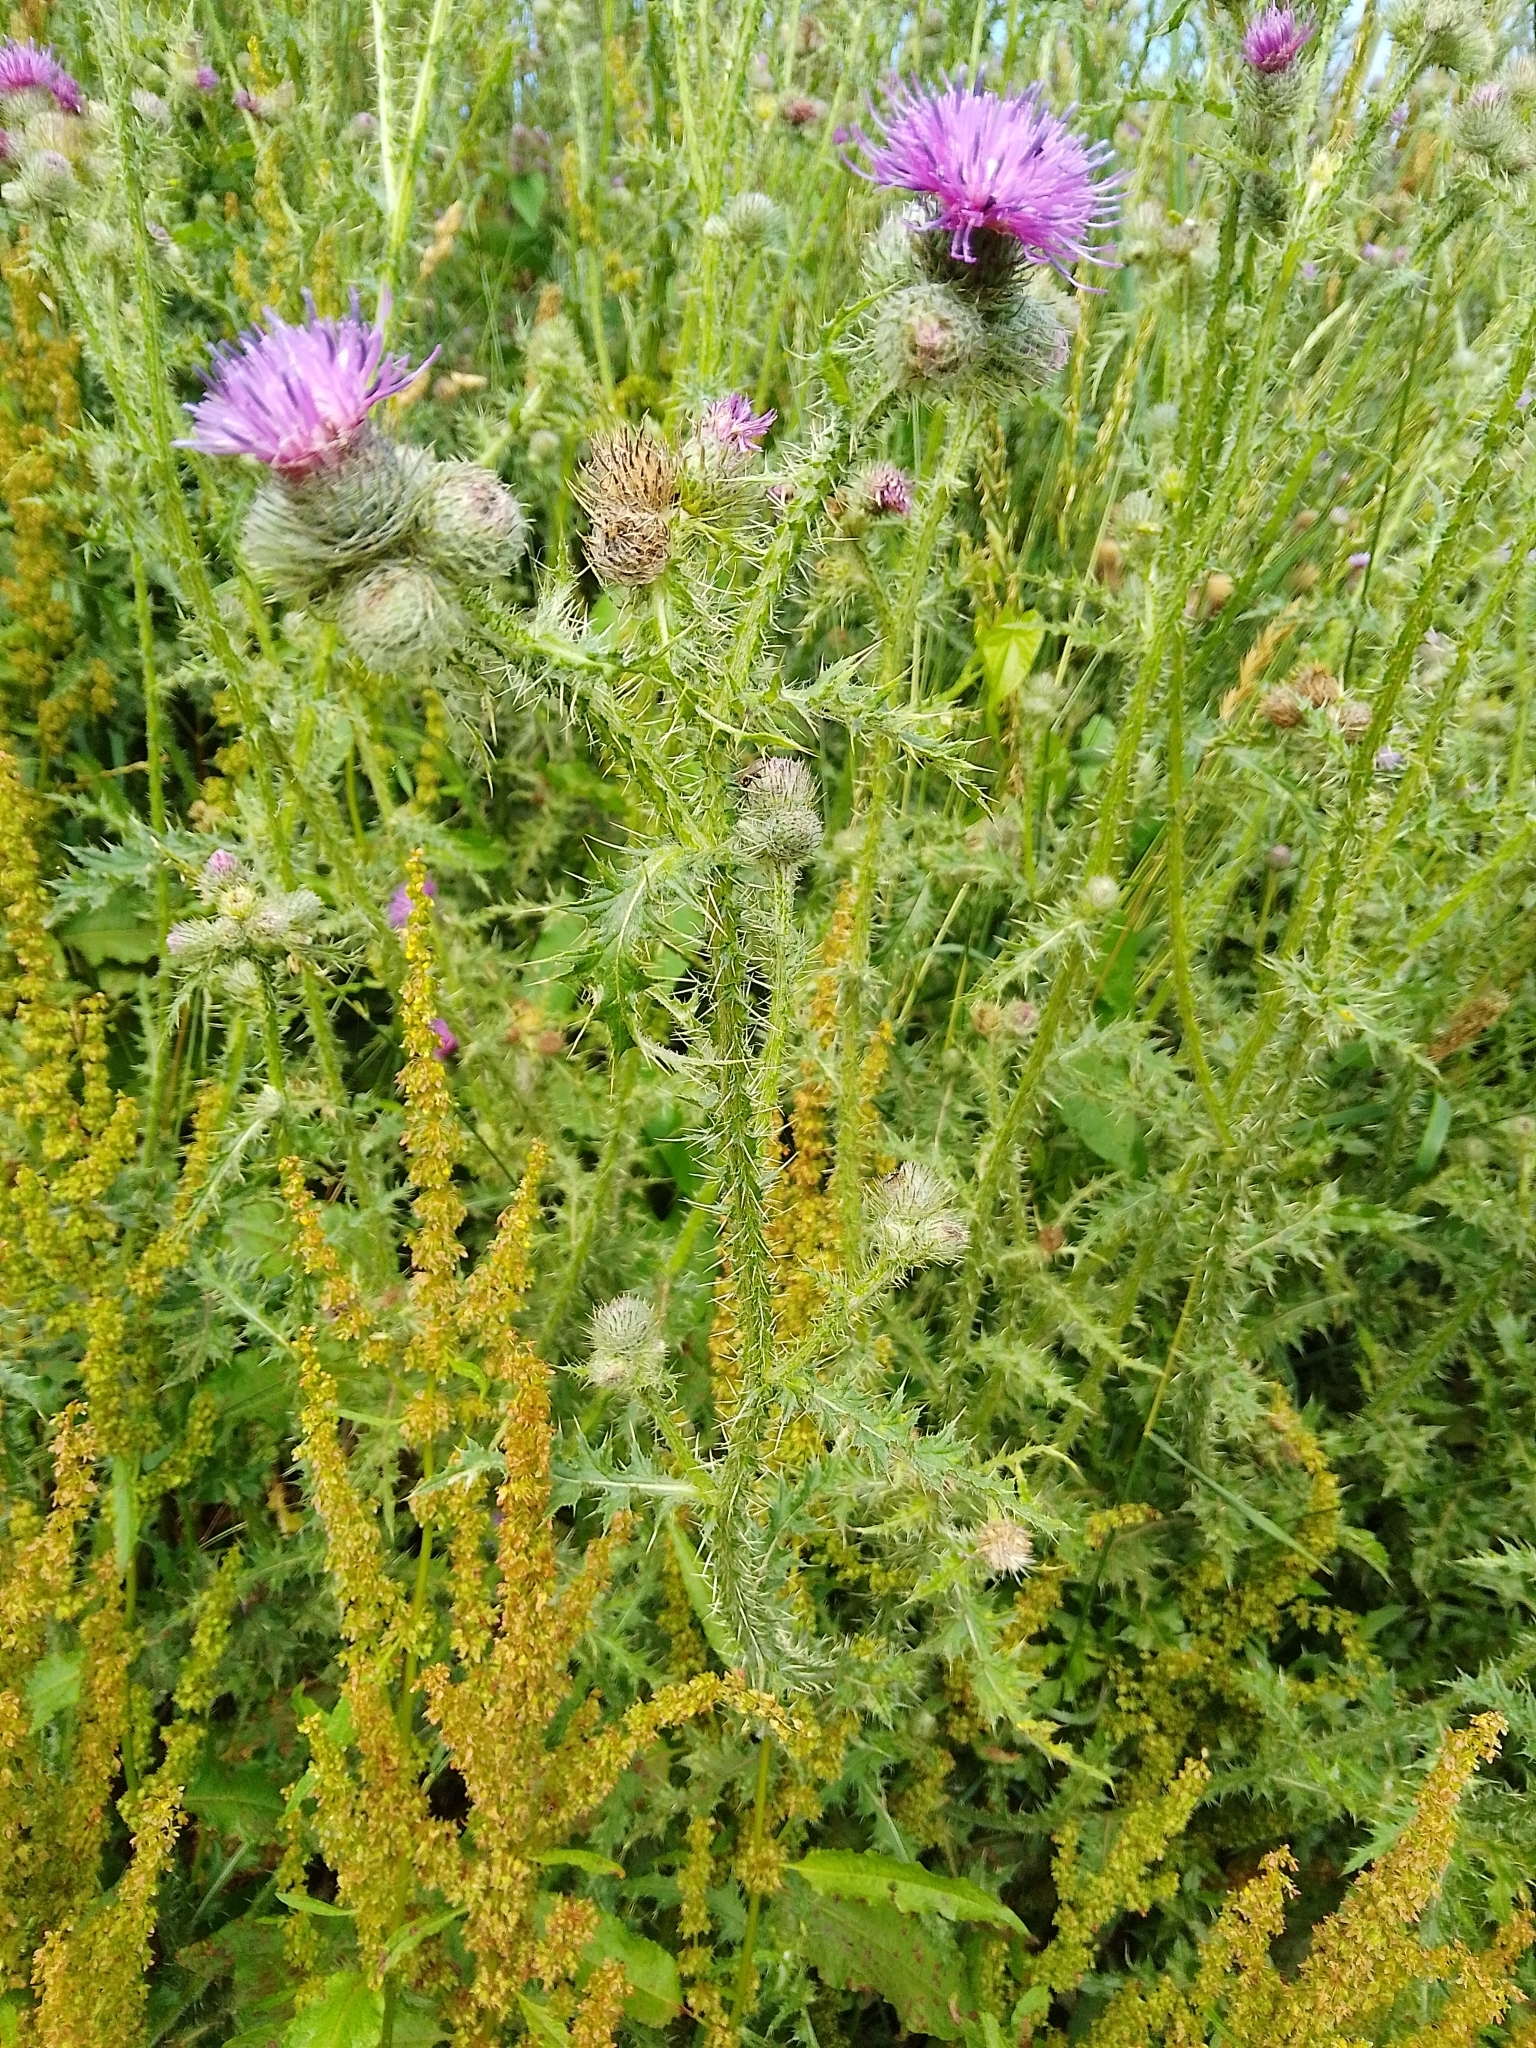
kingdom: Plantae
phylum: Tracheophyta
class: Magnoliopsida
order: Asterales
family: Asteraceae
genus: Carduus
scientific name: Carduus crispus
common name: Welted thistle
